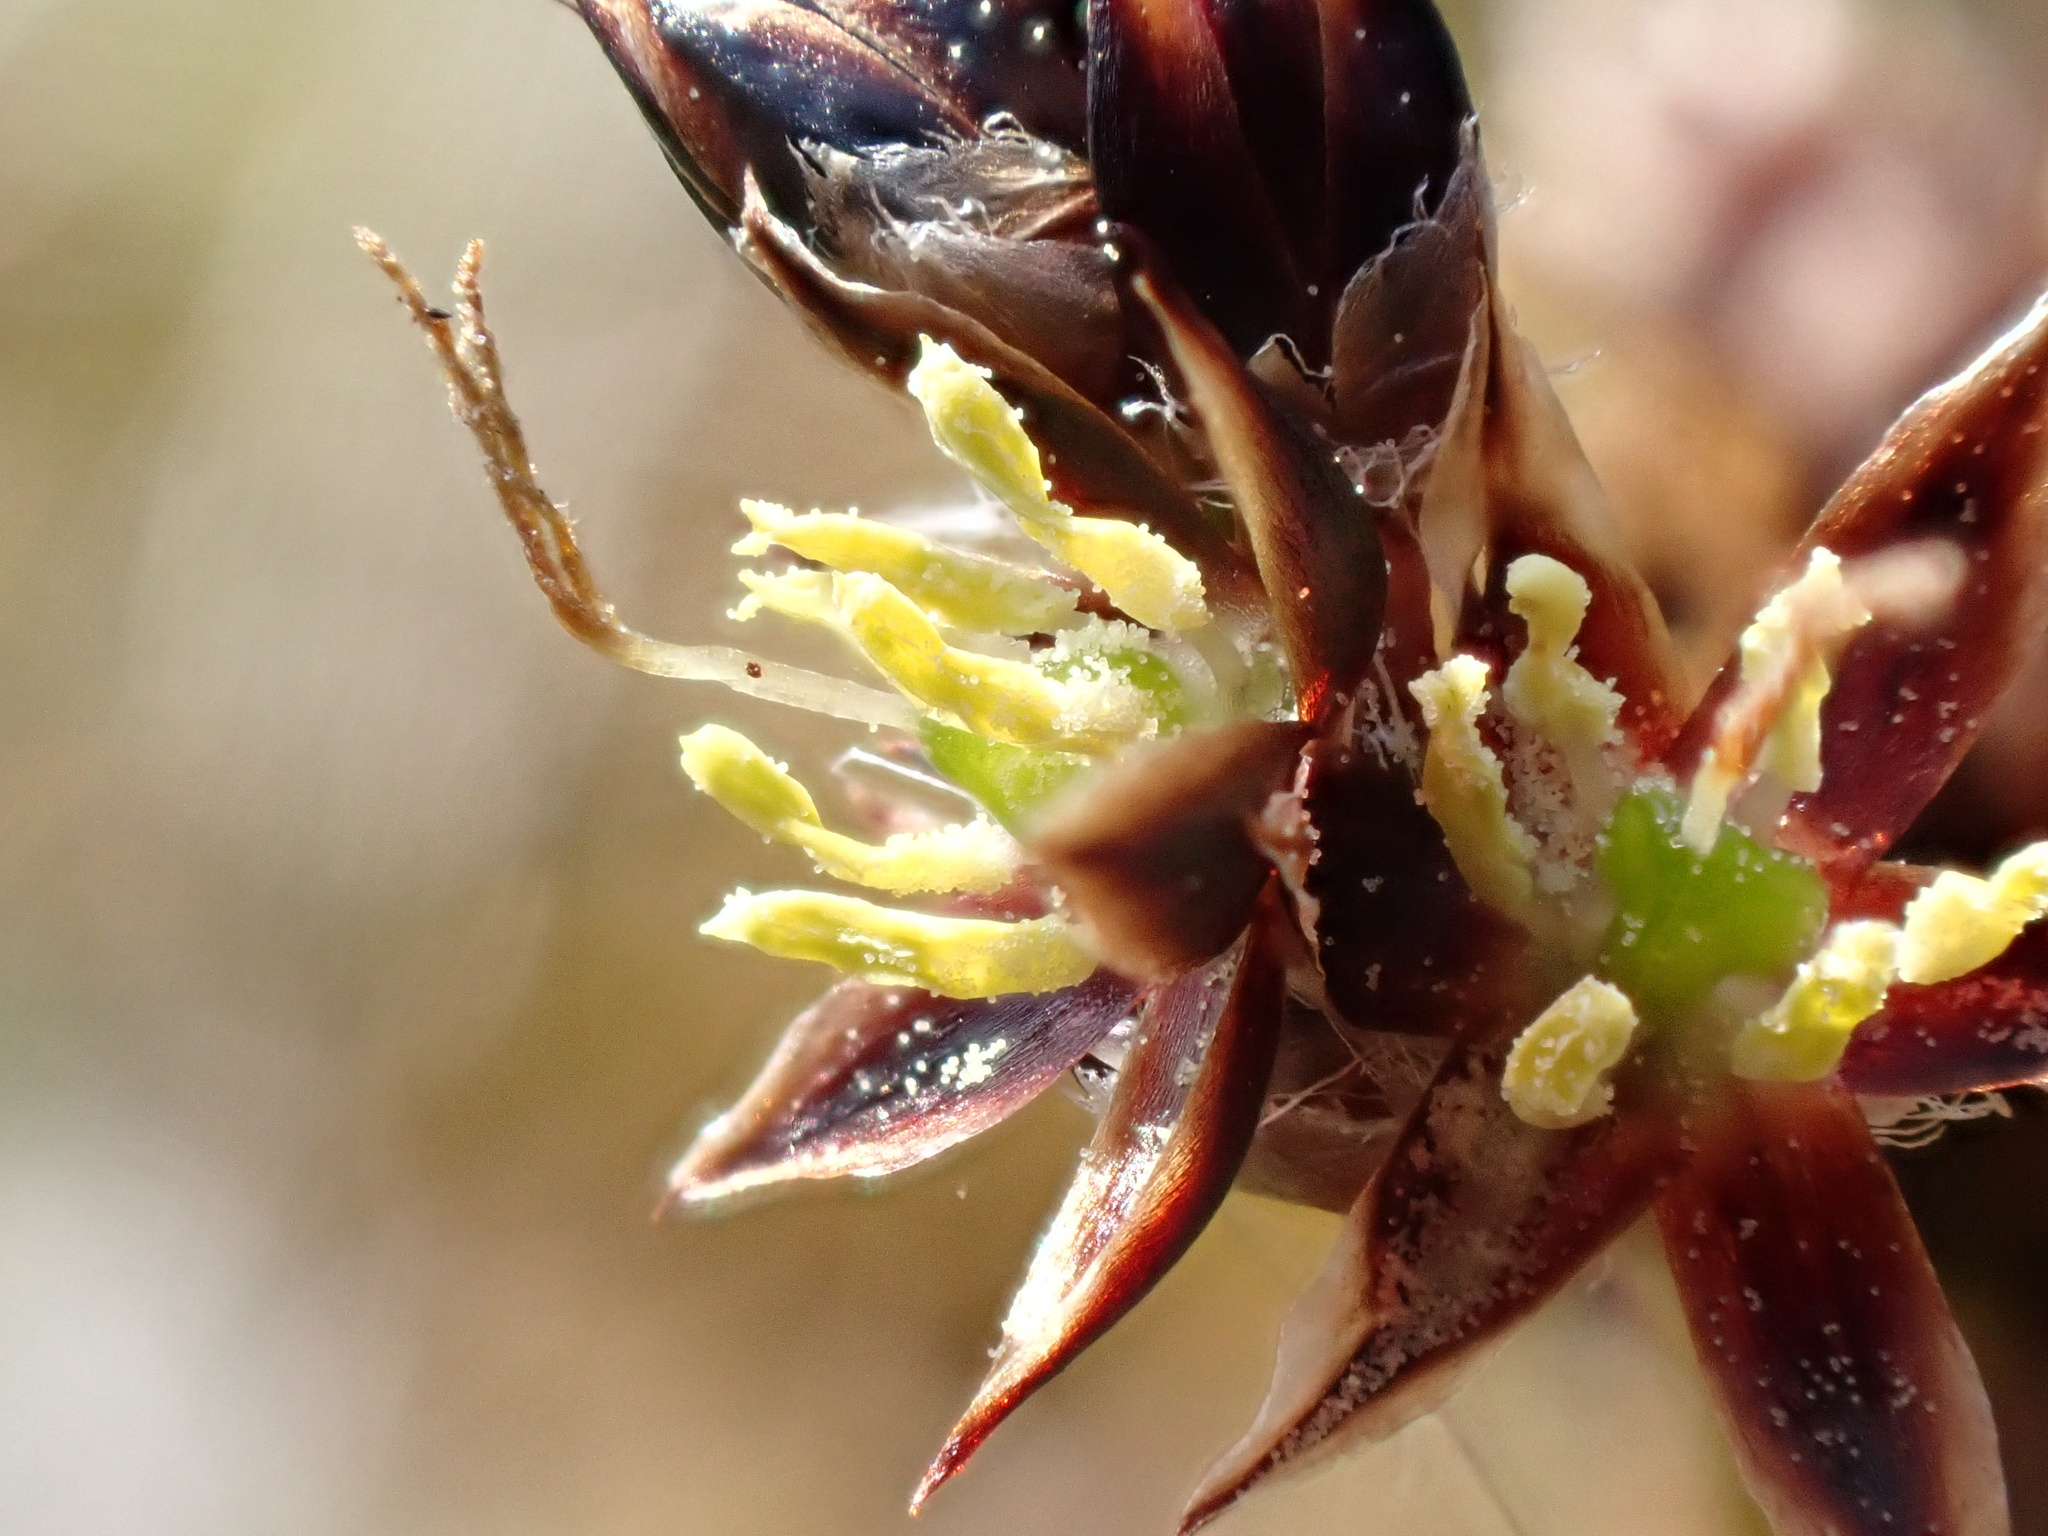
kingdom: Plantae
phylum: Tracheophyta
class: Liliopsida
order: Poales
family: Juncaceae
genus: Luzula
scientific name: Luzula campestris
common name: Field wood-rush
